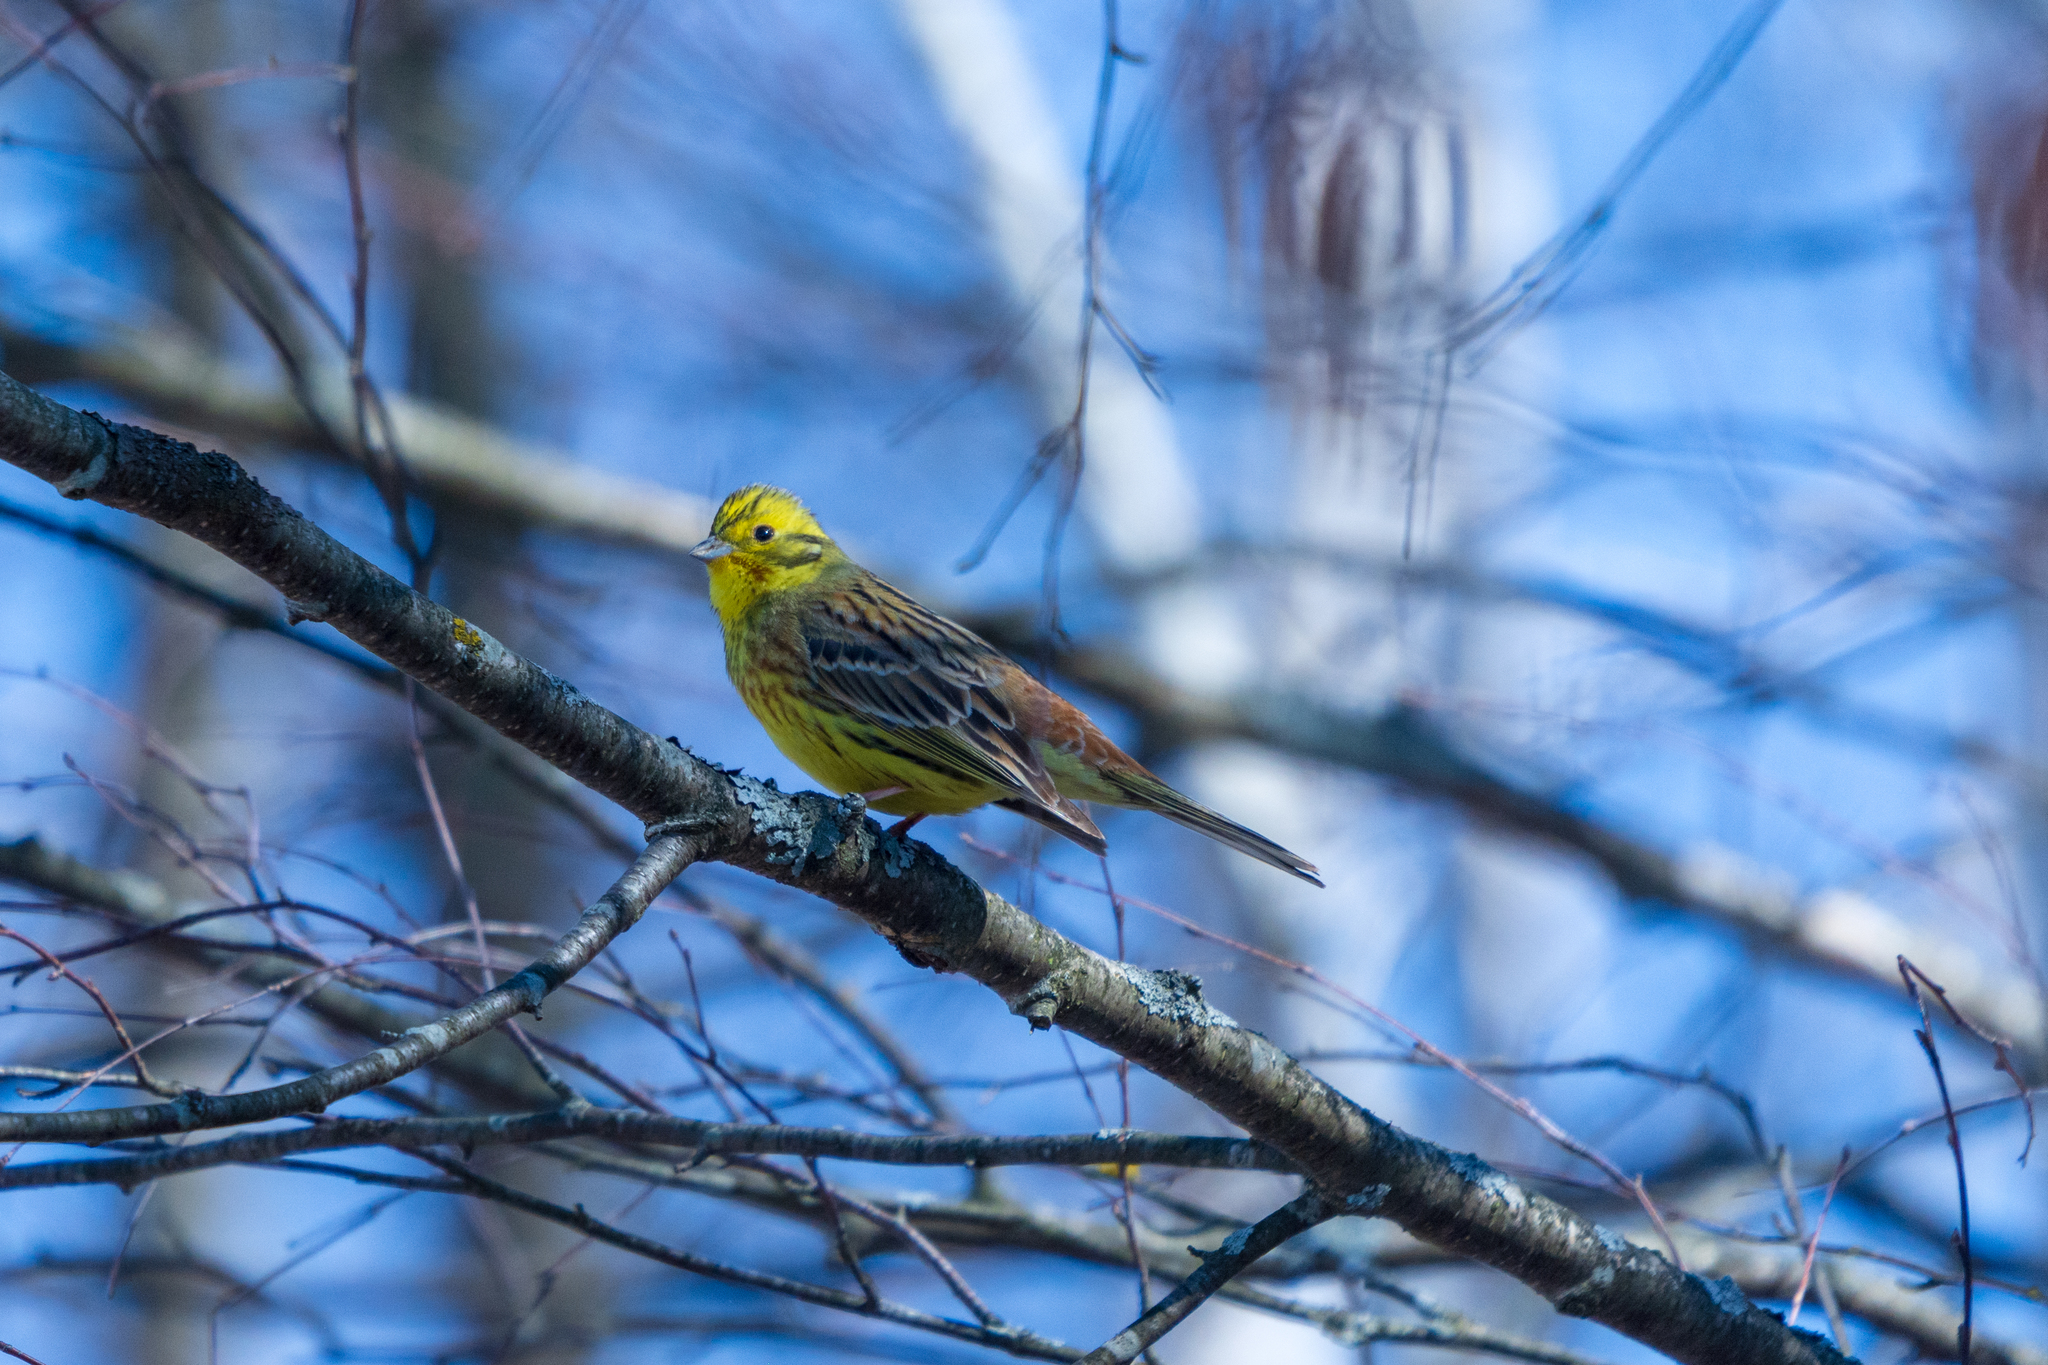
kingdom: Animalia
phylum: Chordata
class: Aves
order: Passeriformes
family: Emberizidae
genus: Emberiza
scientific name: Emberiza citrinella
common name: Yellowhammer
